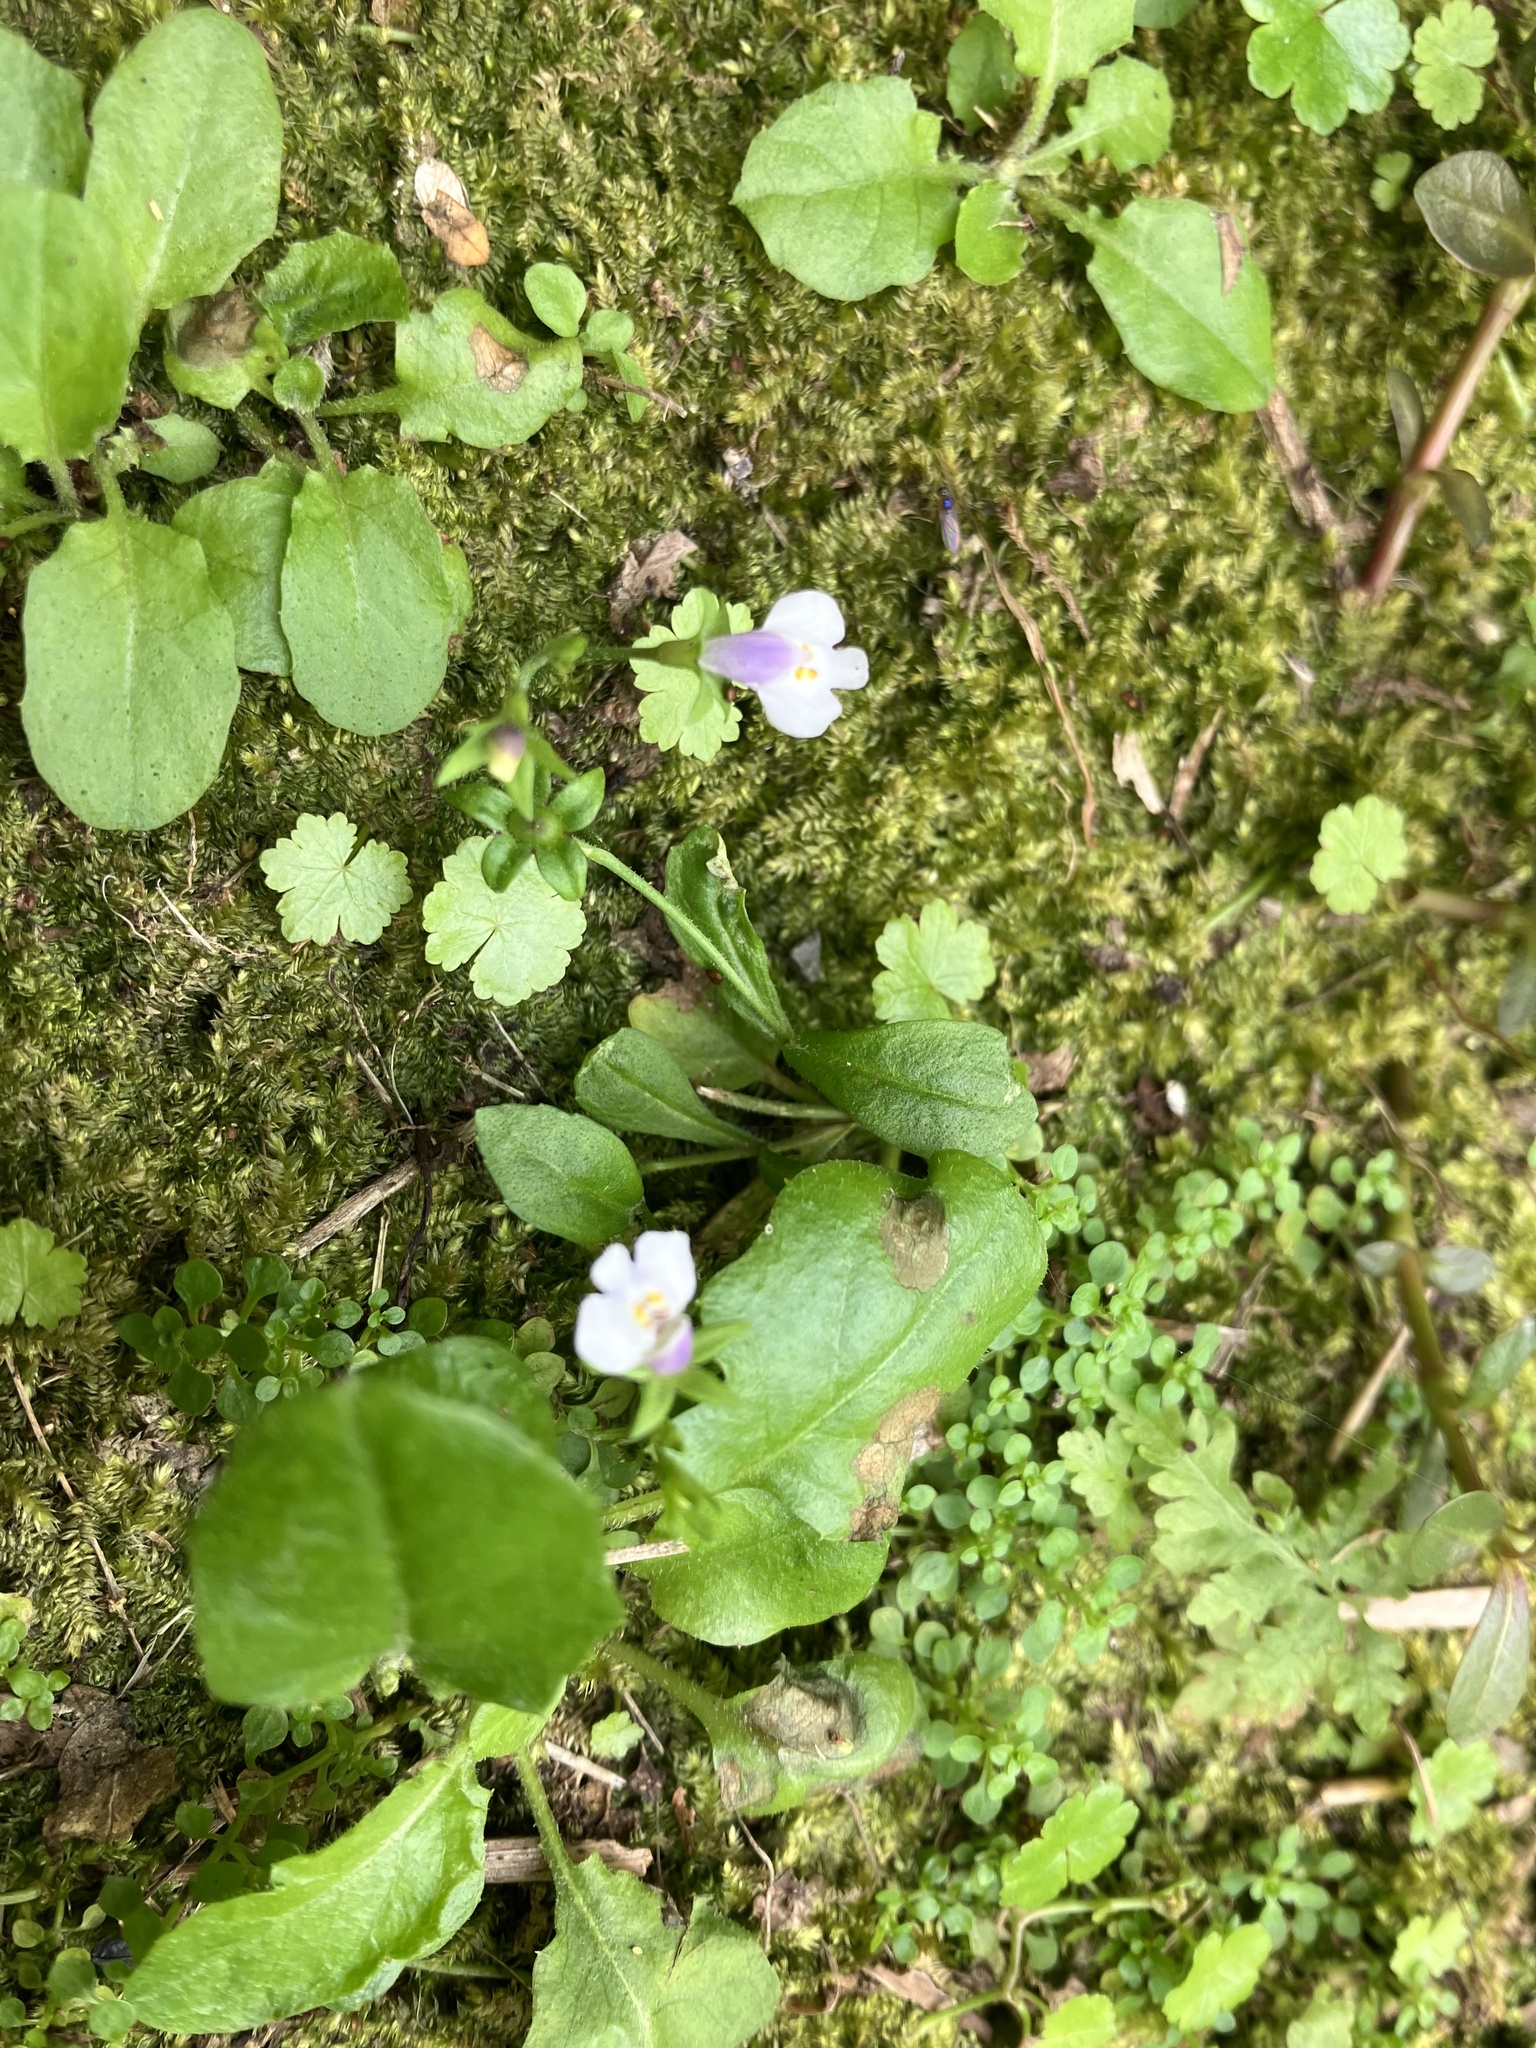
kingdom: Plantae
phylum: Tracheophyta
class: Magnoliopsida
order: Lamiales
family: Mazaceae
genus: Mazus
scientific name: Mazus pumilus
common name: Japanese mazus
